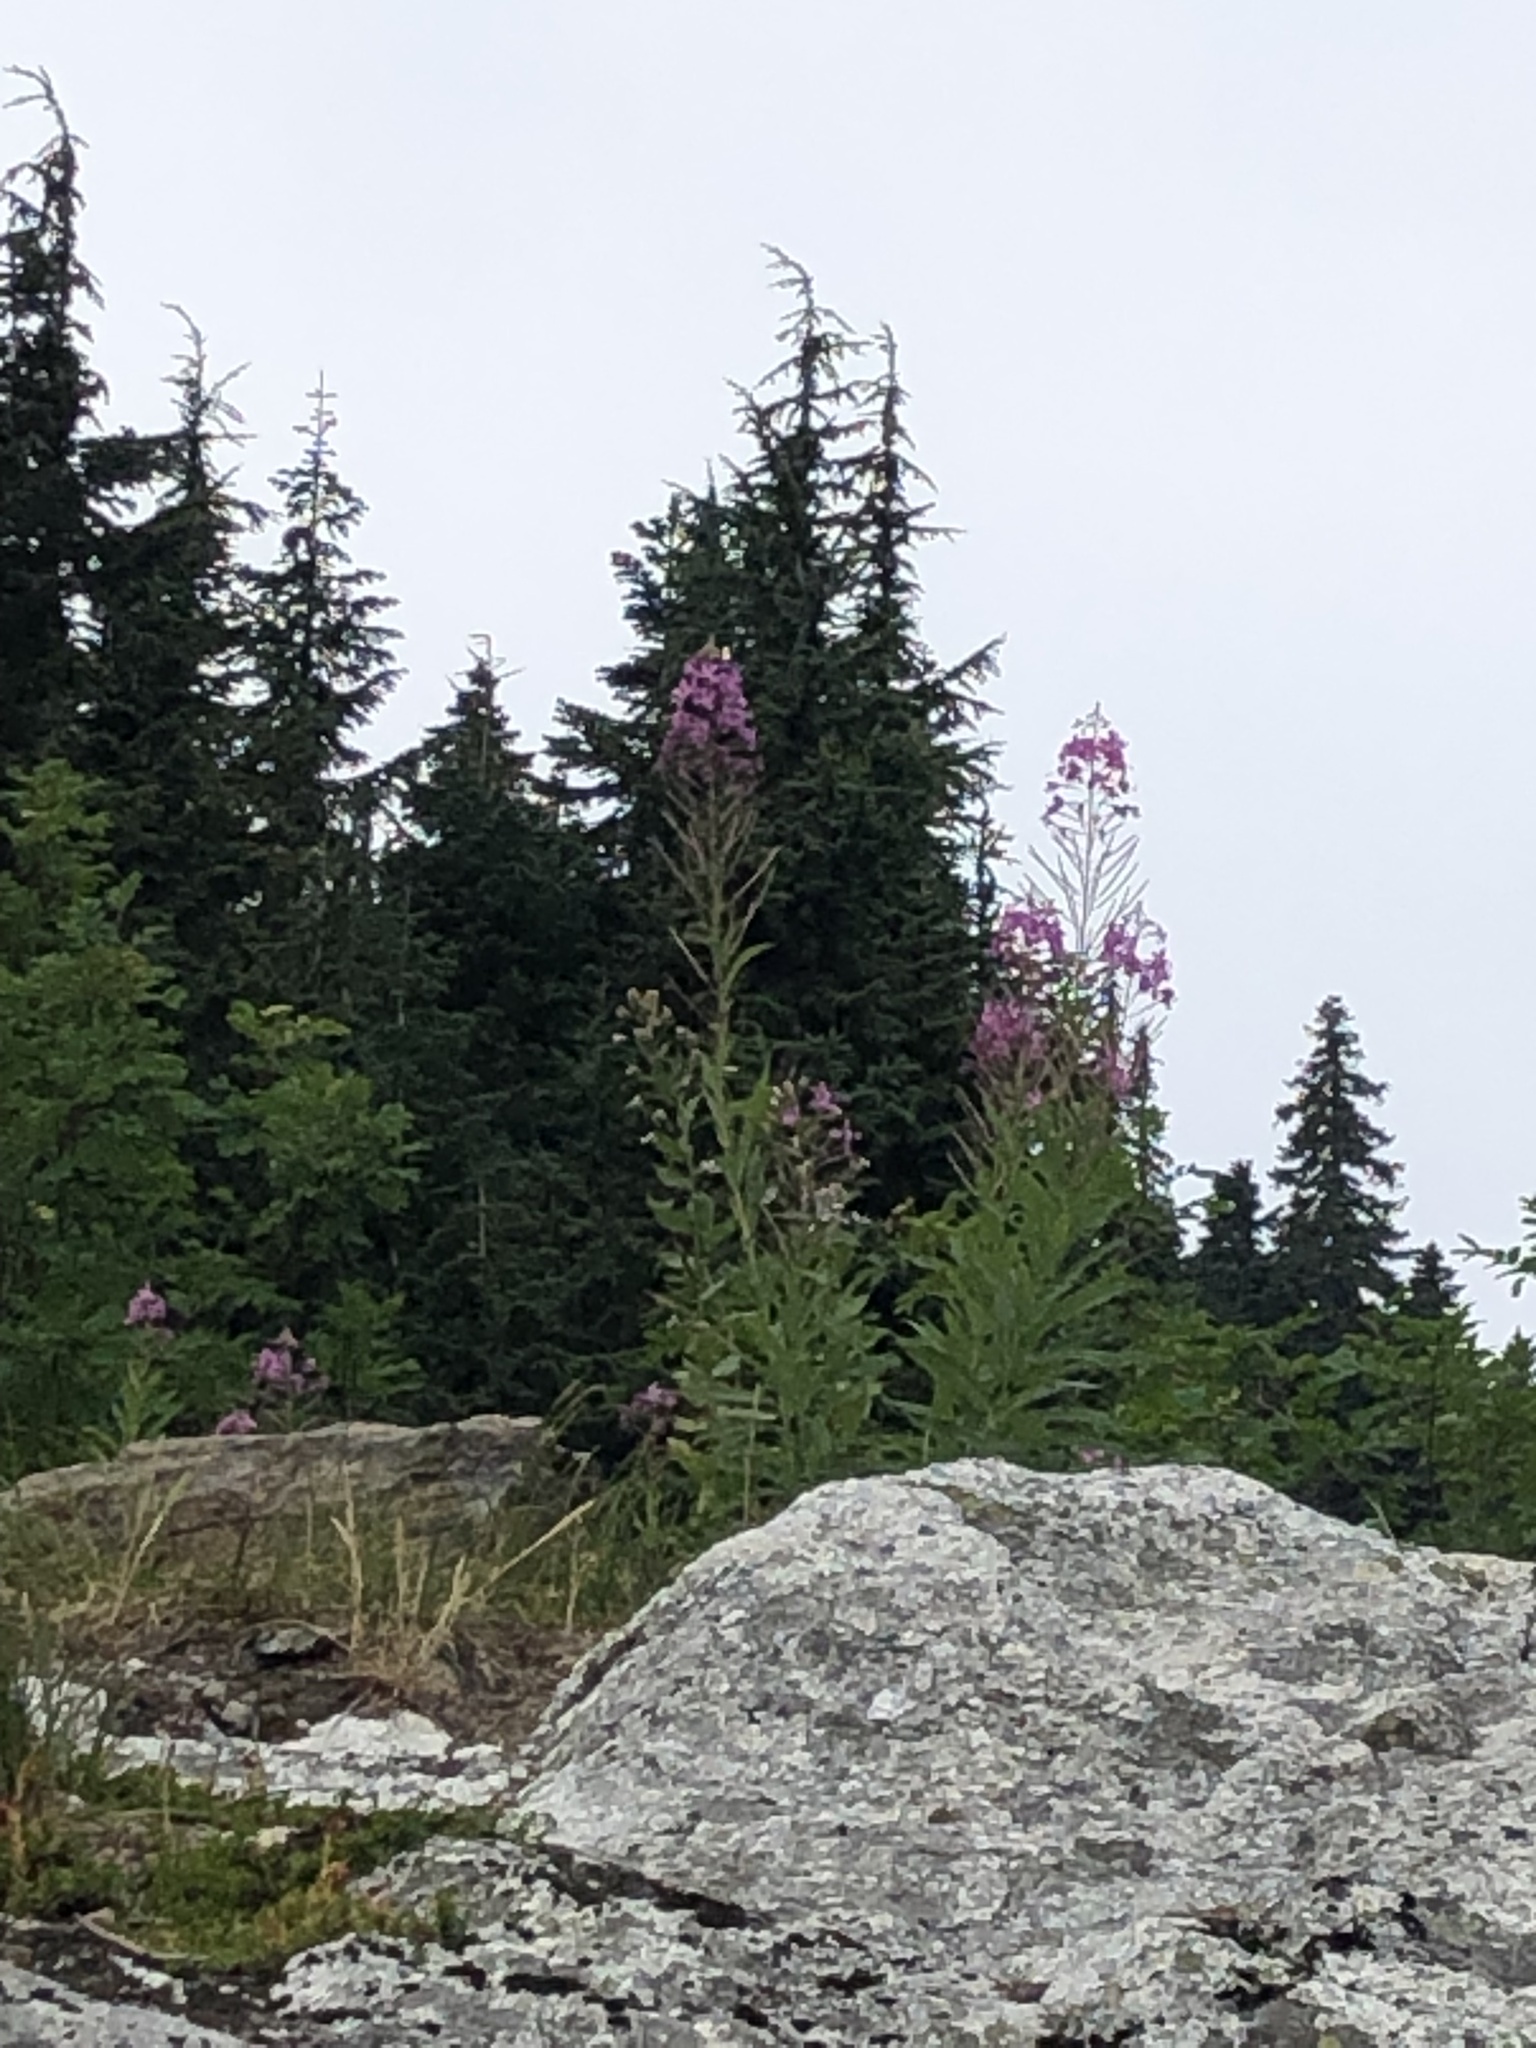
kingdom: Plantae
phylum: Tracheophyta
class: Magnoliopsida
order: Myrtales
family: Onagraceae
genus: Chamaenerion
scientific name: Chamaenerion angustifolium
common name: Fireweed
